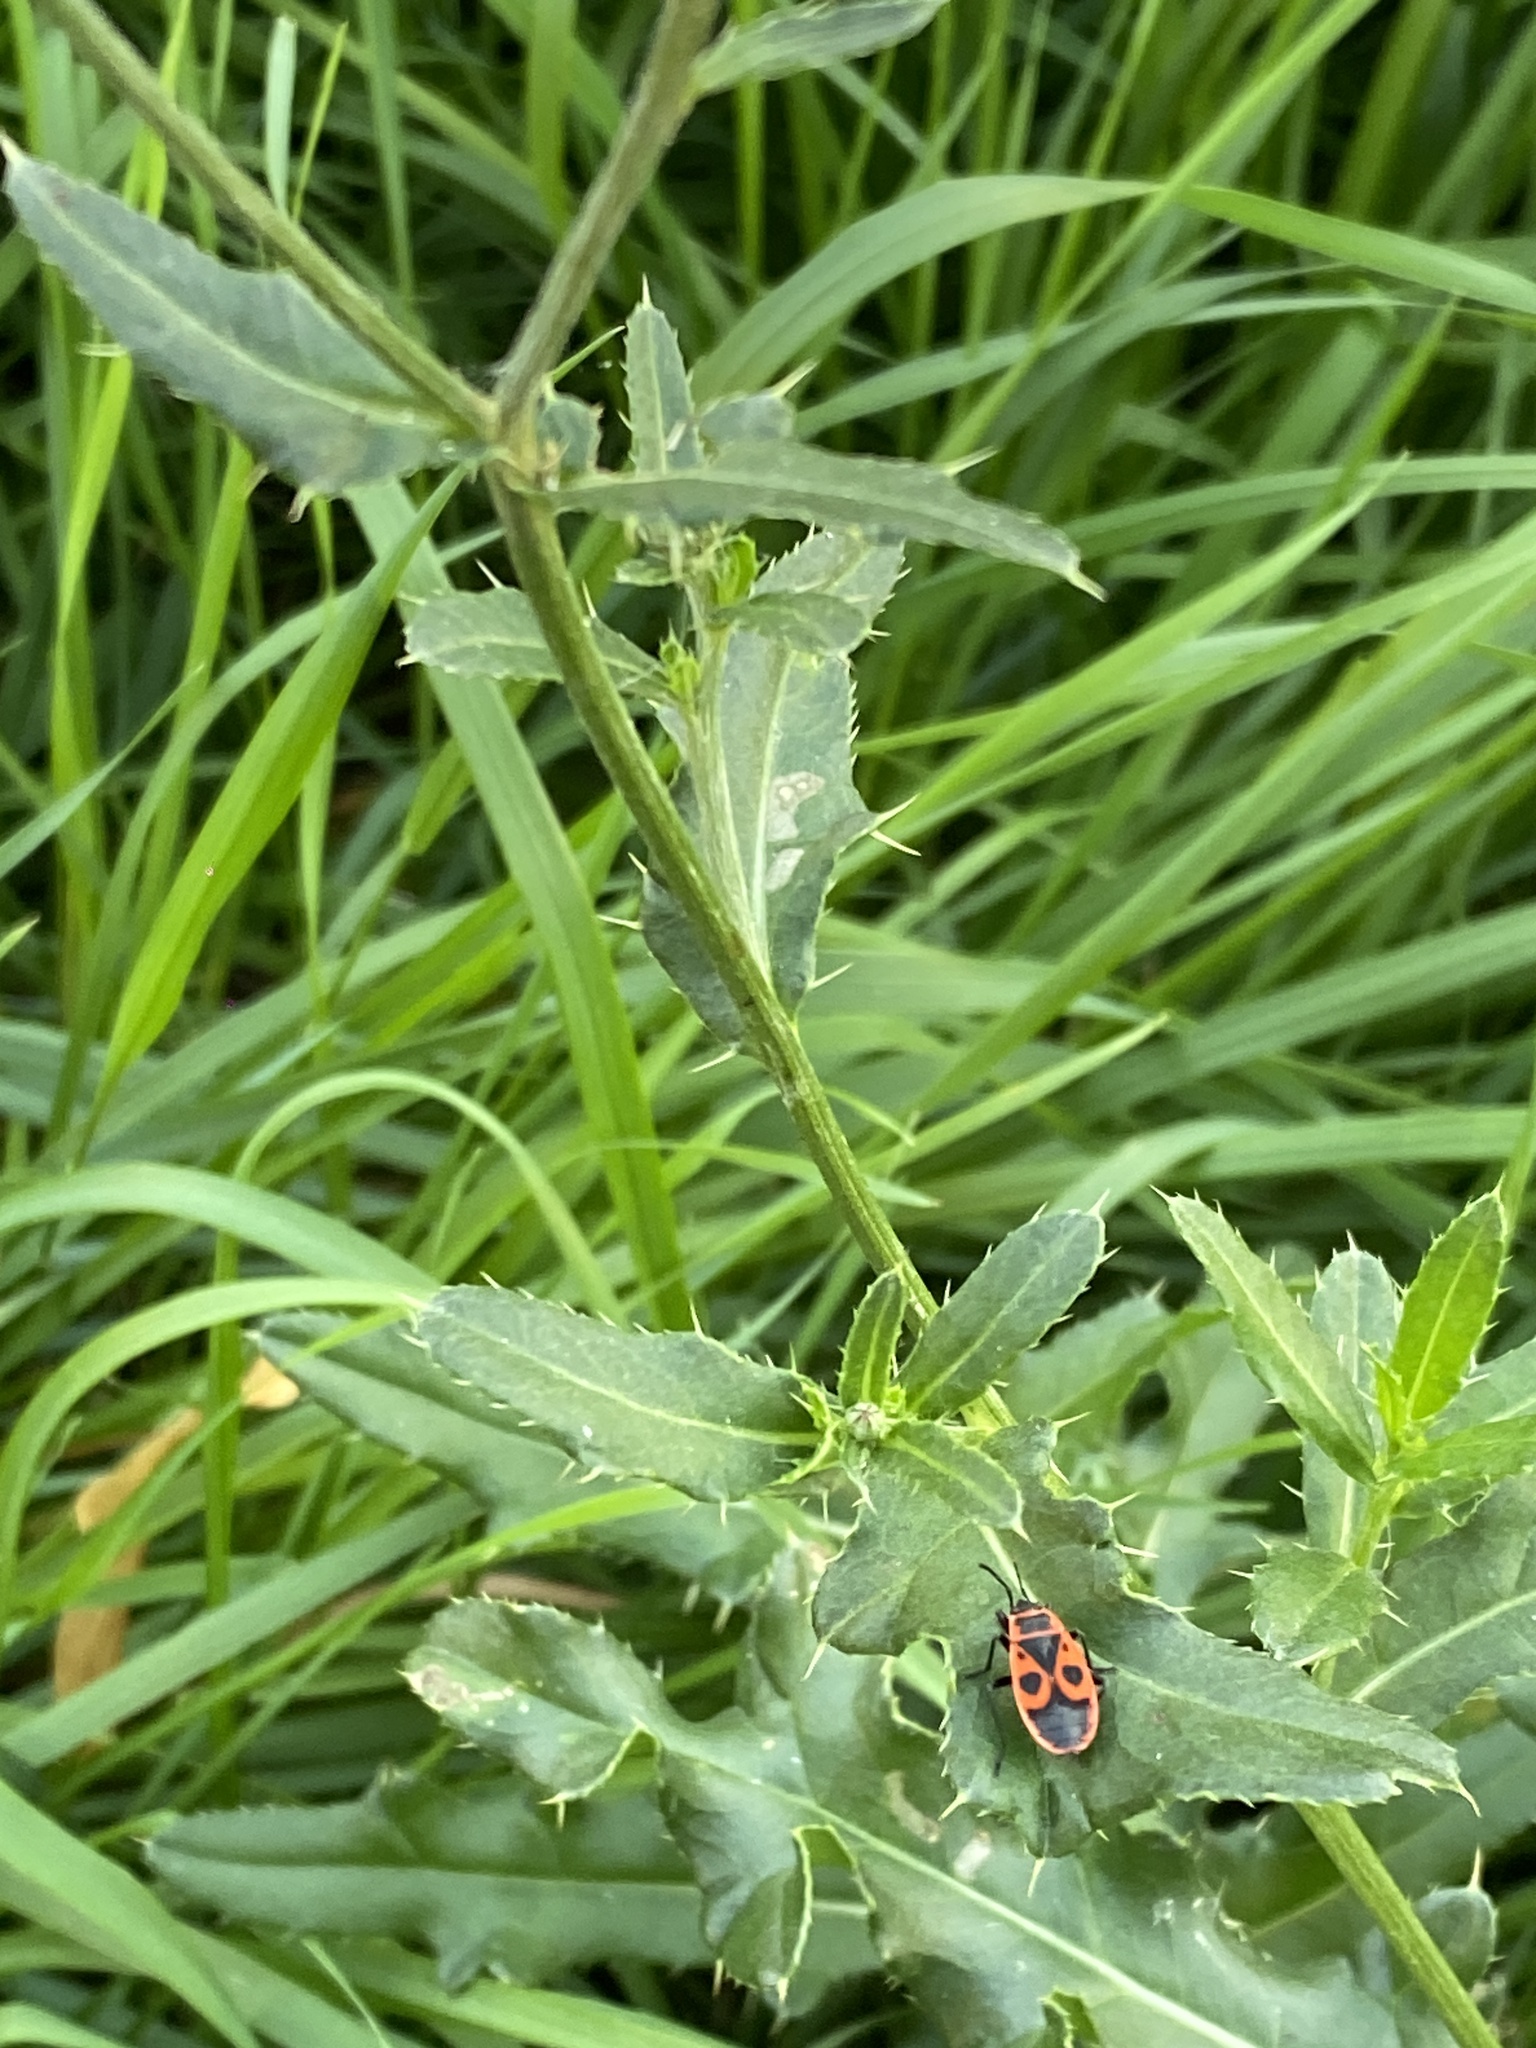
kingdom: Plantae
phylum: Tracheophyta
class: Magnoliopsida
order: Asterales
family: Asteraceae
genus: Cirsium
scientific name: Cirsium arvense
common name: Creeping thistle
